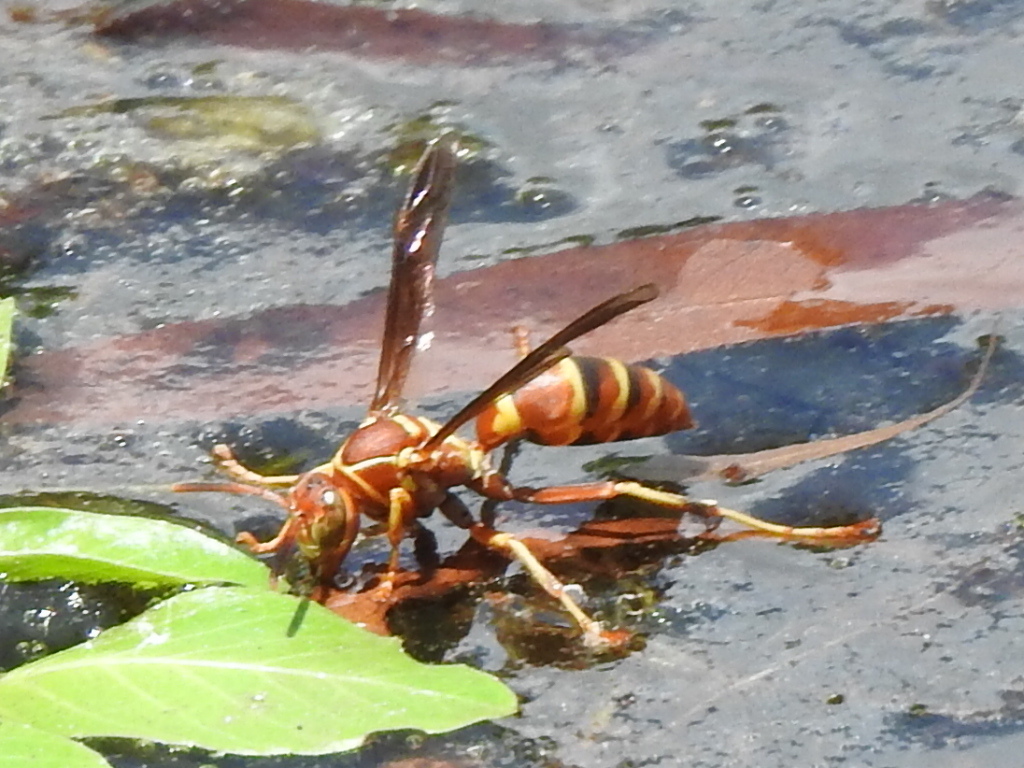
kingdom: Animalia
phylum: Arthropoda
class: Insecta
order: Hymenoptera
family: Eumenidae
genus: Polistes
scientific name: Polistes dorsalis
